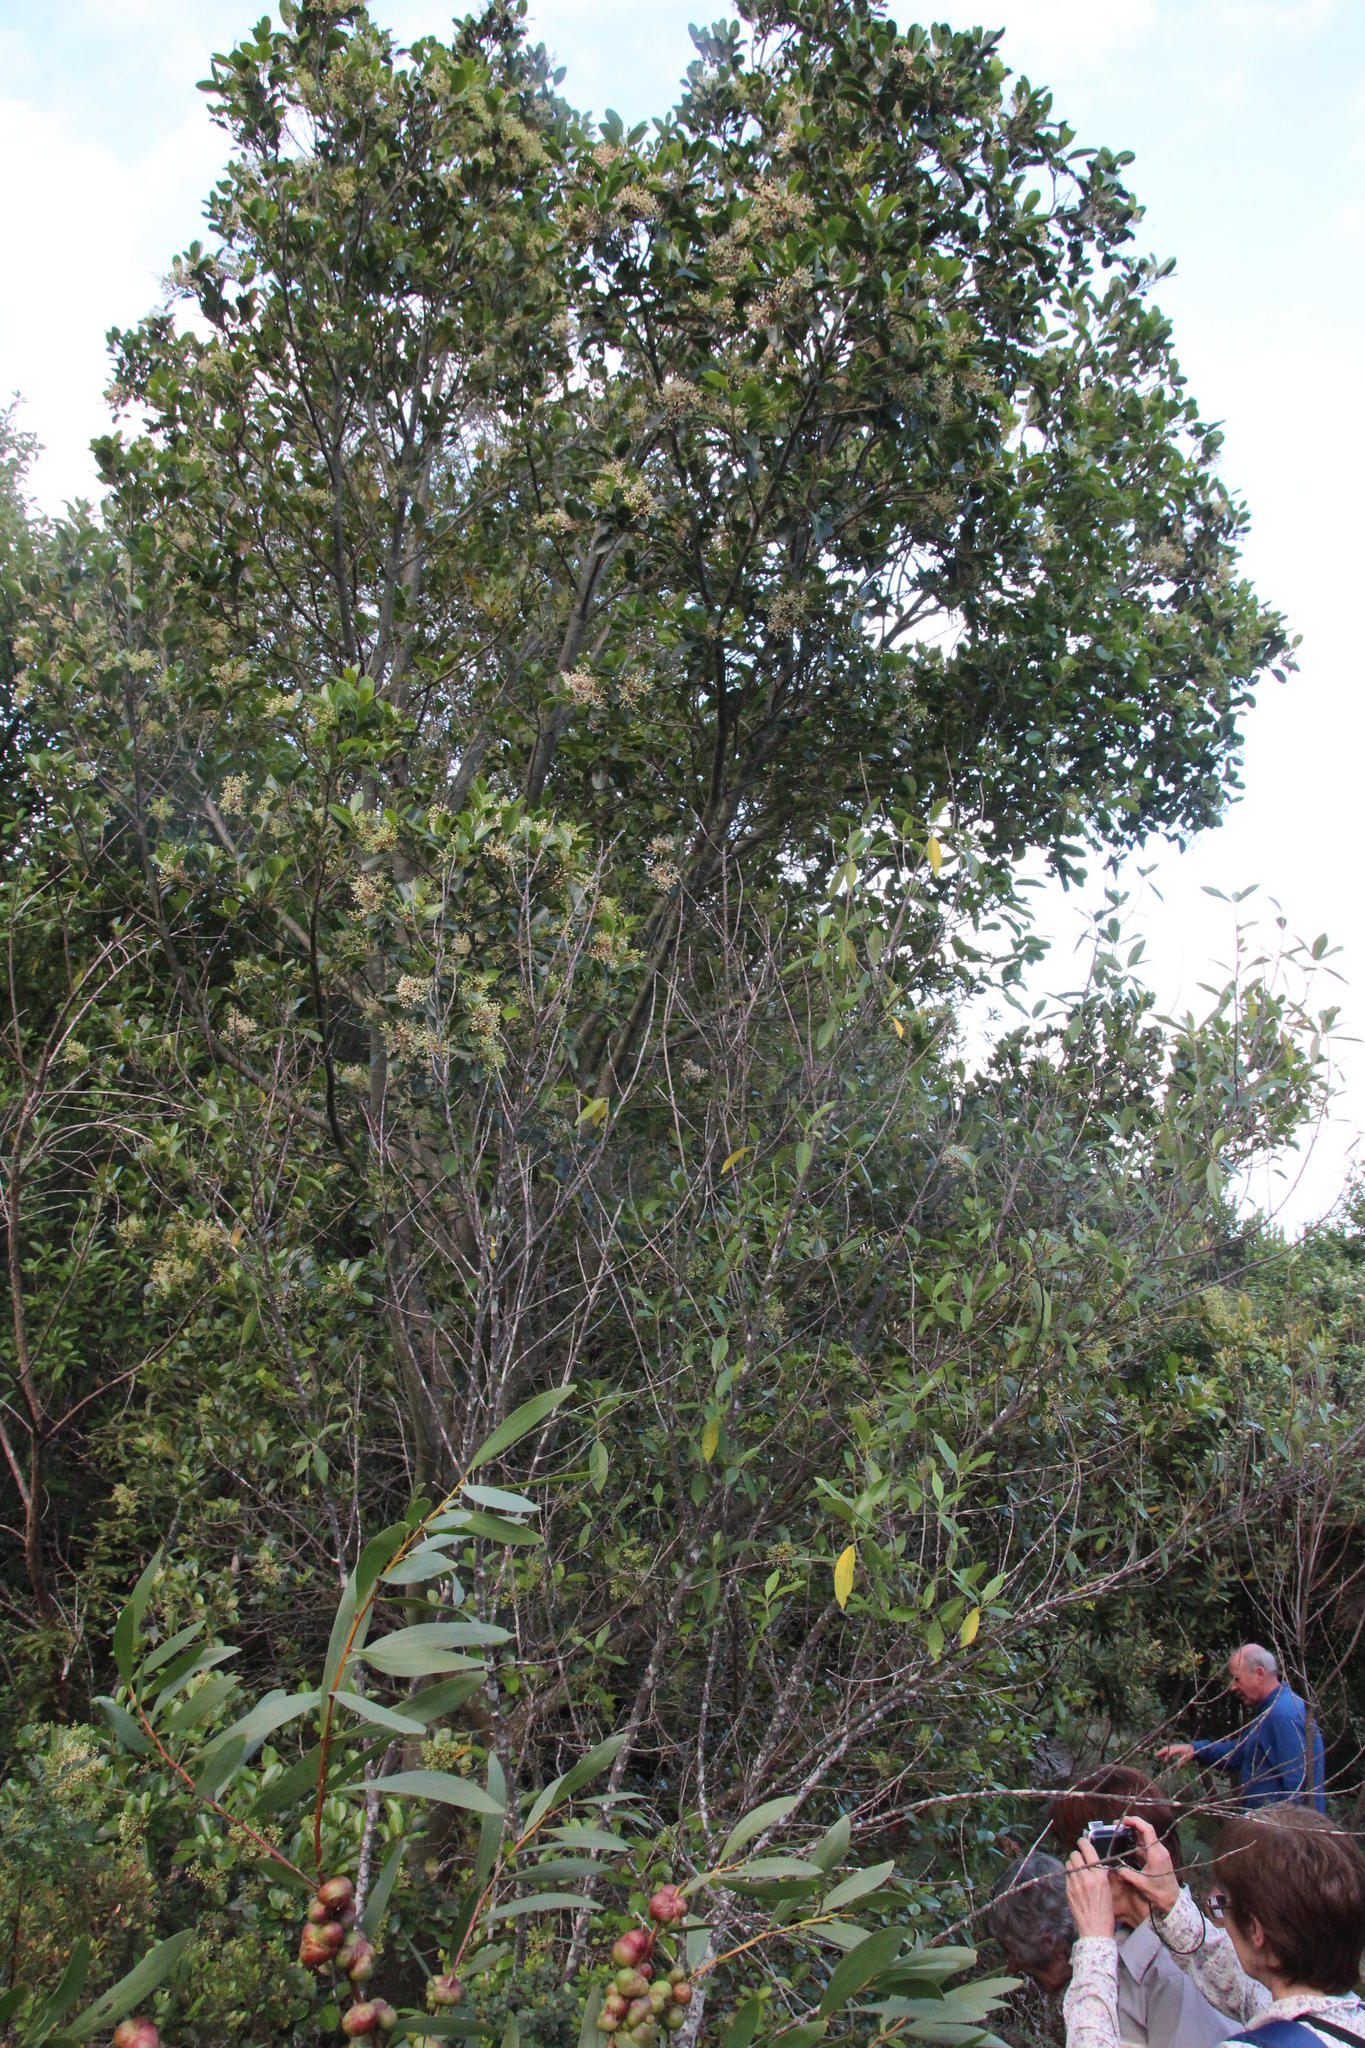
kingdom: Plantae
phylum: Tracheophyta
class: Magnoliopsida
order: Metteniusales
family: Metteniusaceae
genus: Apodytes
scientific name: Apodytes dimidiata
